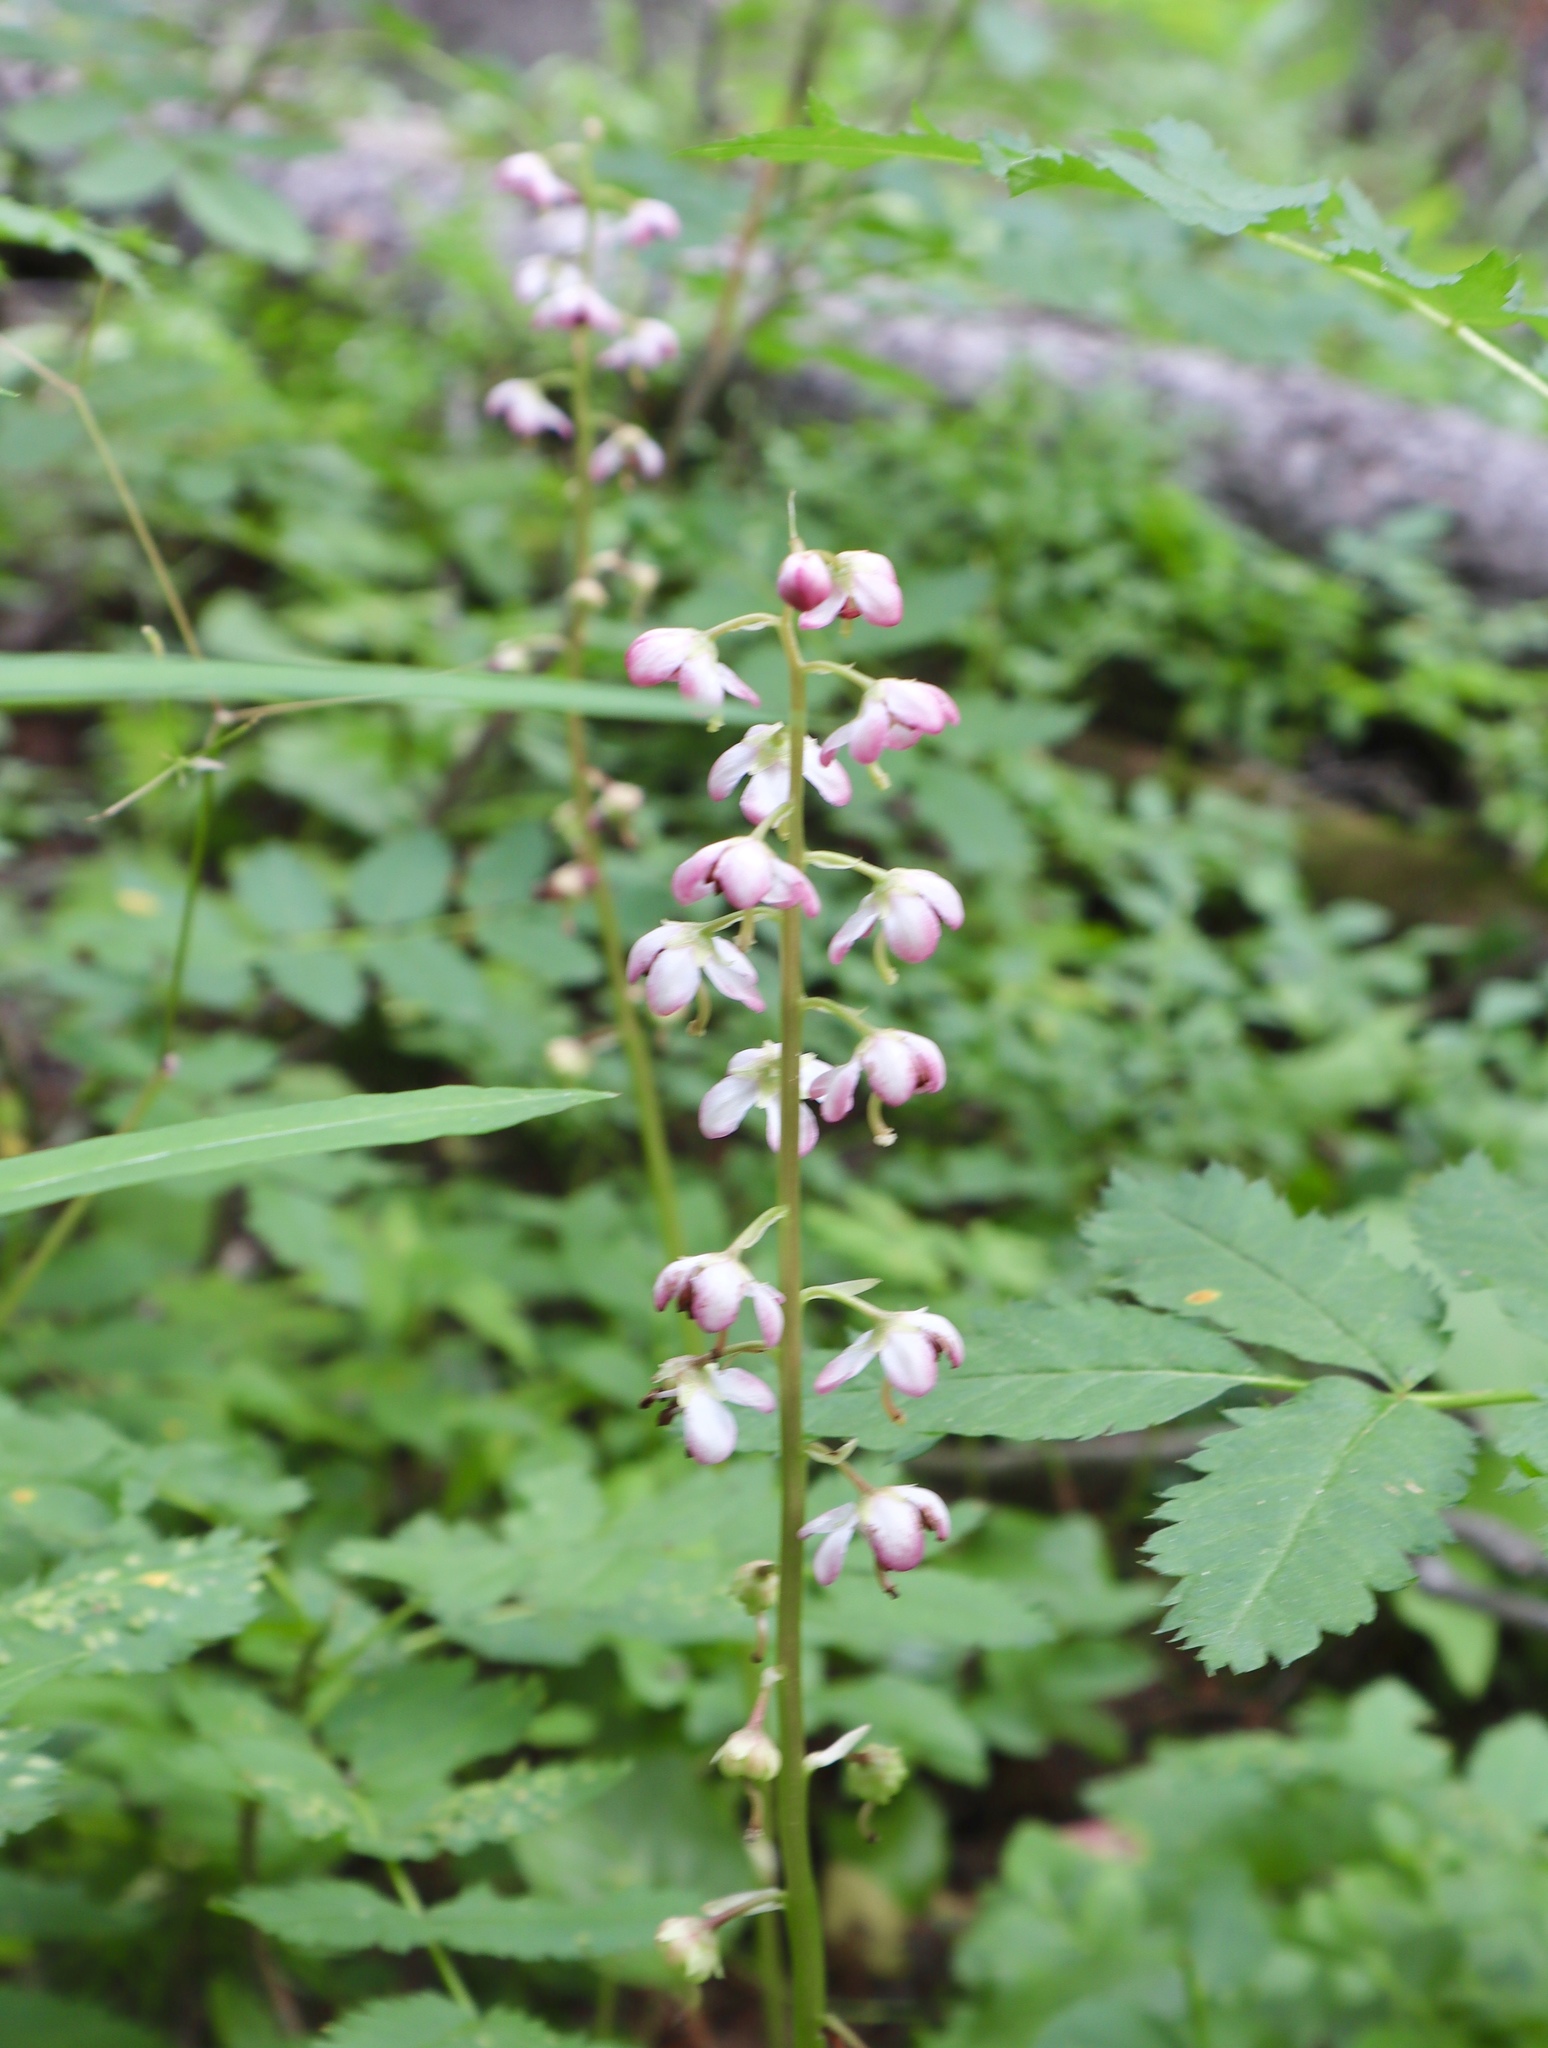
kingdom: Plantae
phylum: Tracheophyta
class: Magnoliopsida
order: Ericales
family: Ericaceae
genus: Pyrola
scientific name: Pyrola asarifolia
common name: Bog wintergreen
